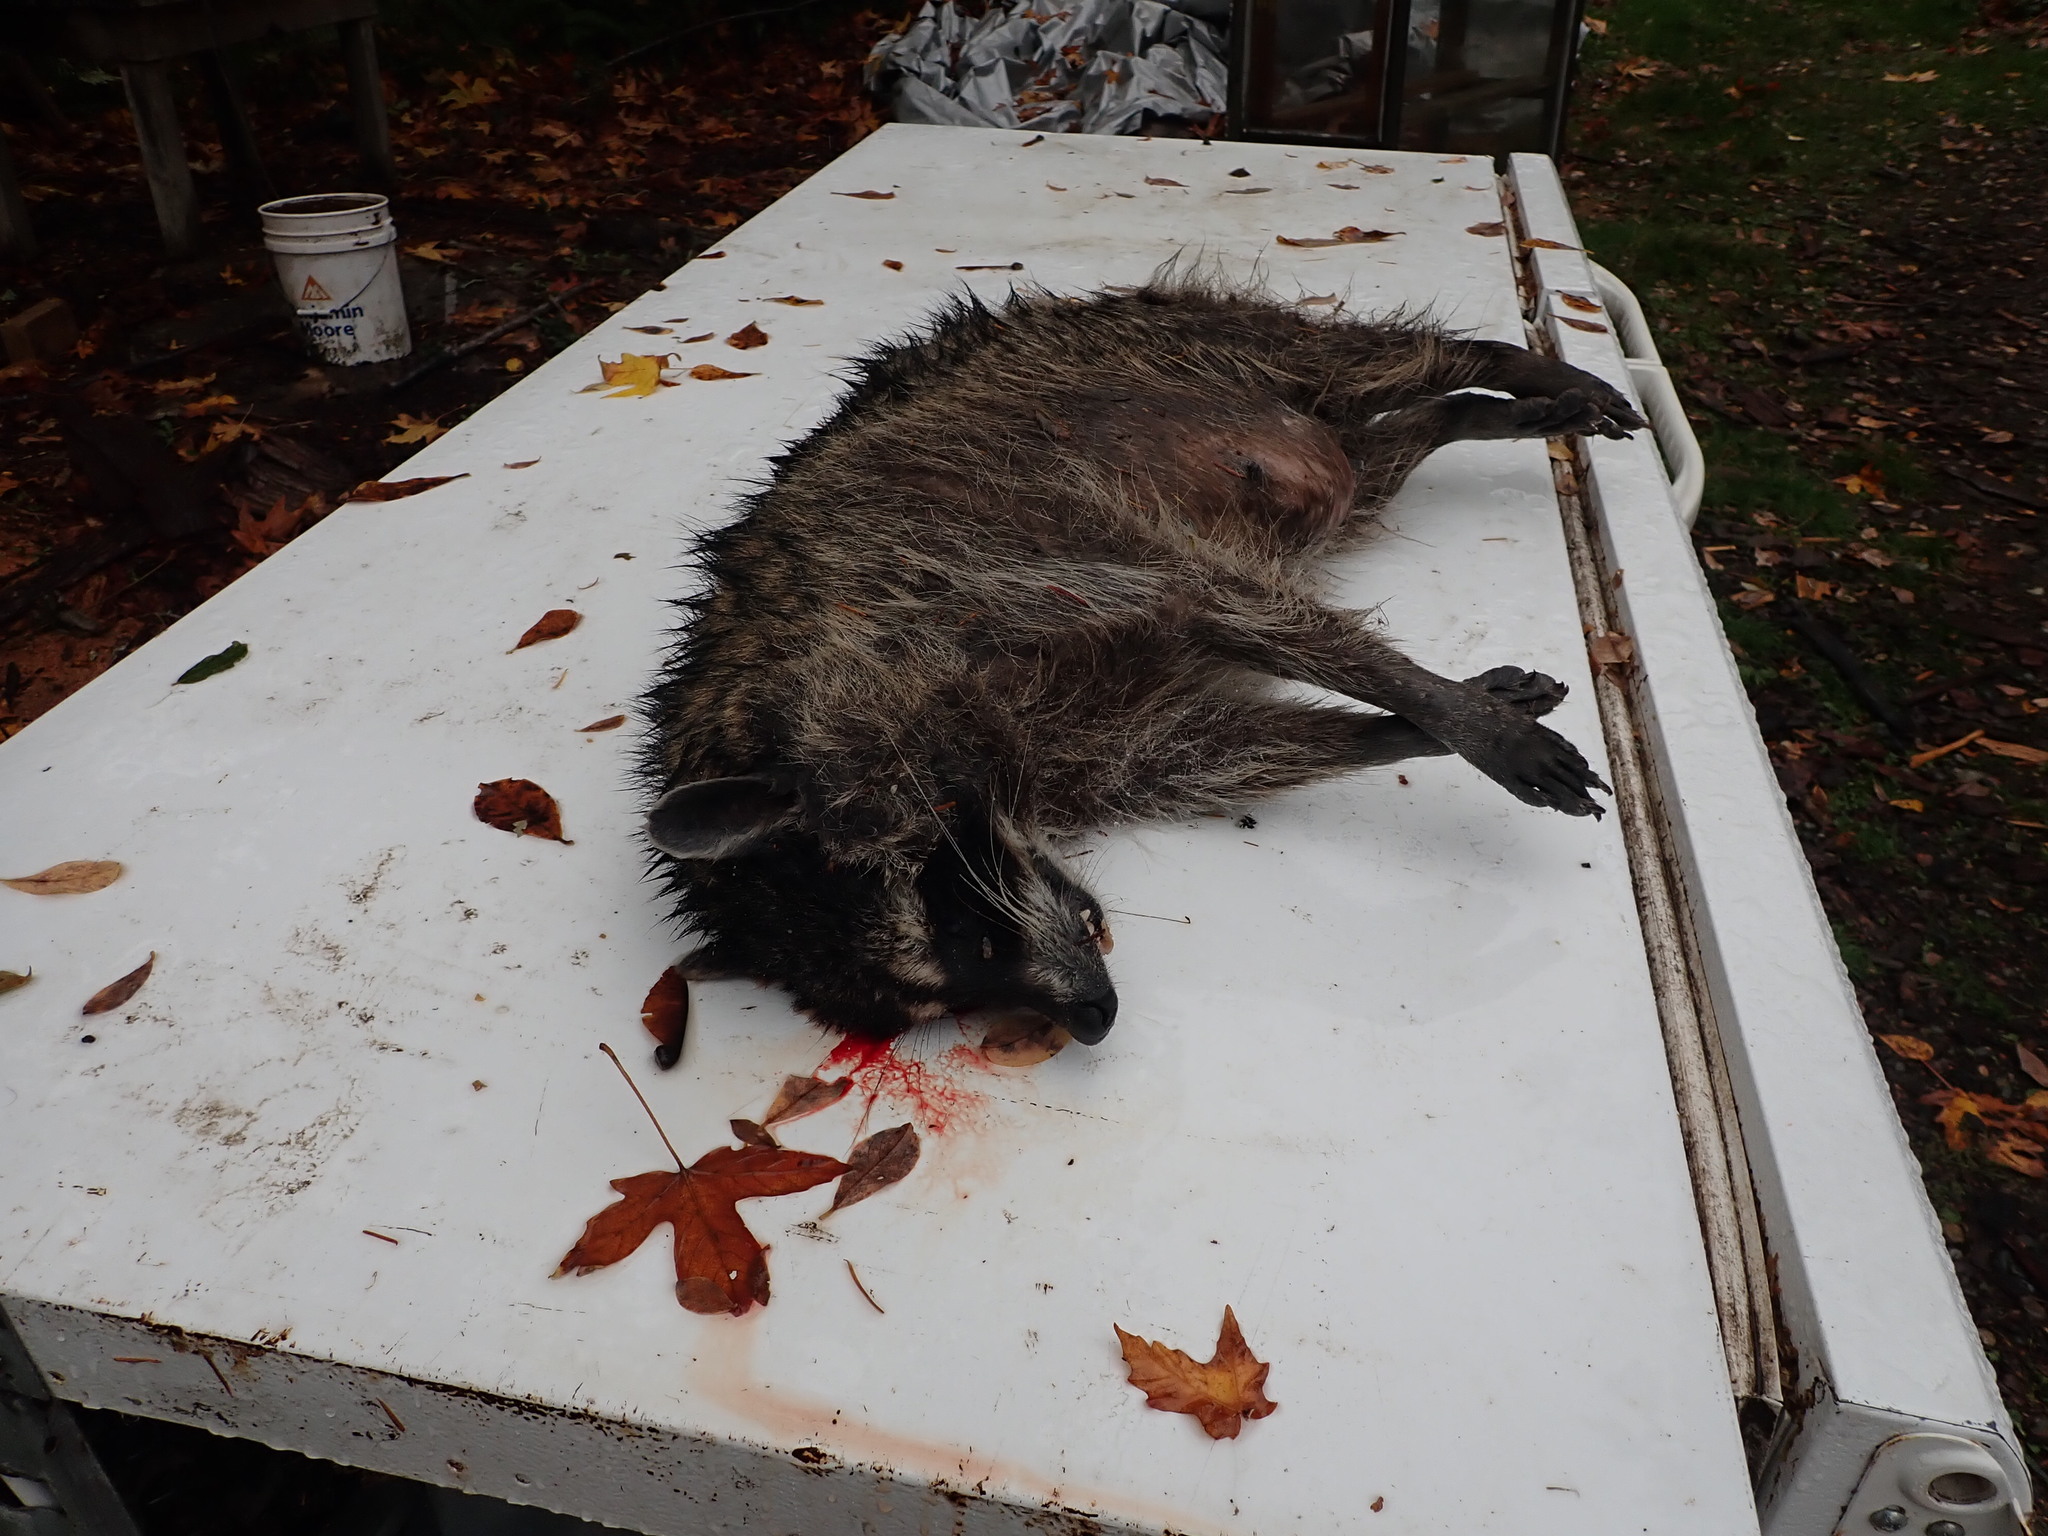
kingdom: Animalia
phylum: Chordata
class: Mammalia
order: Carnivora
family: Procyonidae
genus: Procyon
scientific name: Procyon lotor
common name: Raccoon
